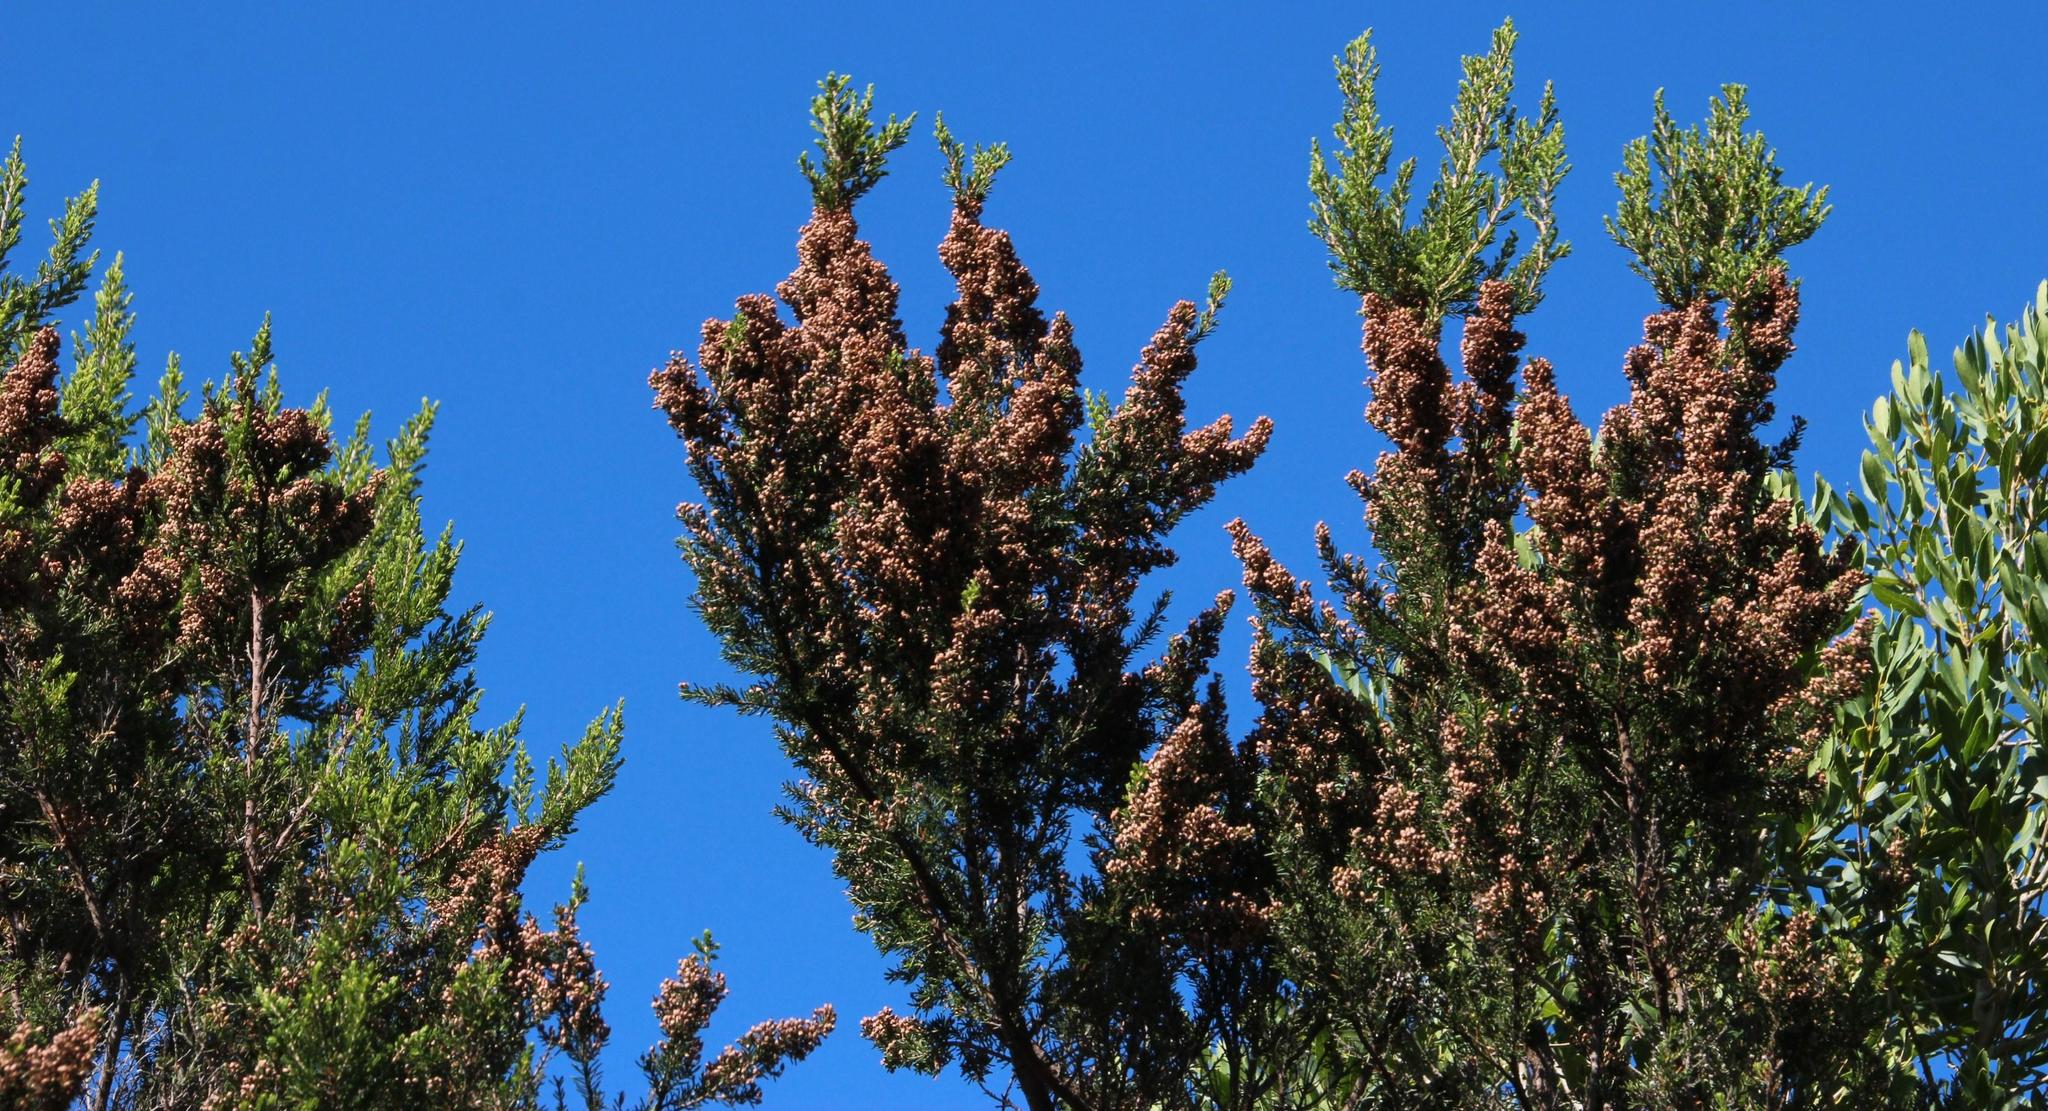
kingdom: Plantae
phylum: Tracheophyta
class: Magnoliopsida
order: Ericales
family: Ericaceae
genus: Erica
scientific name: Erica arborea
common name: Tree heath
